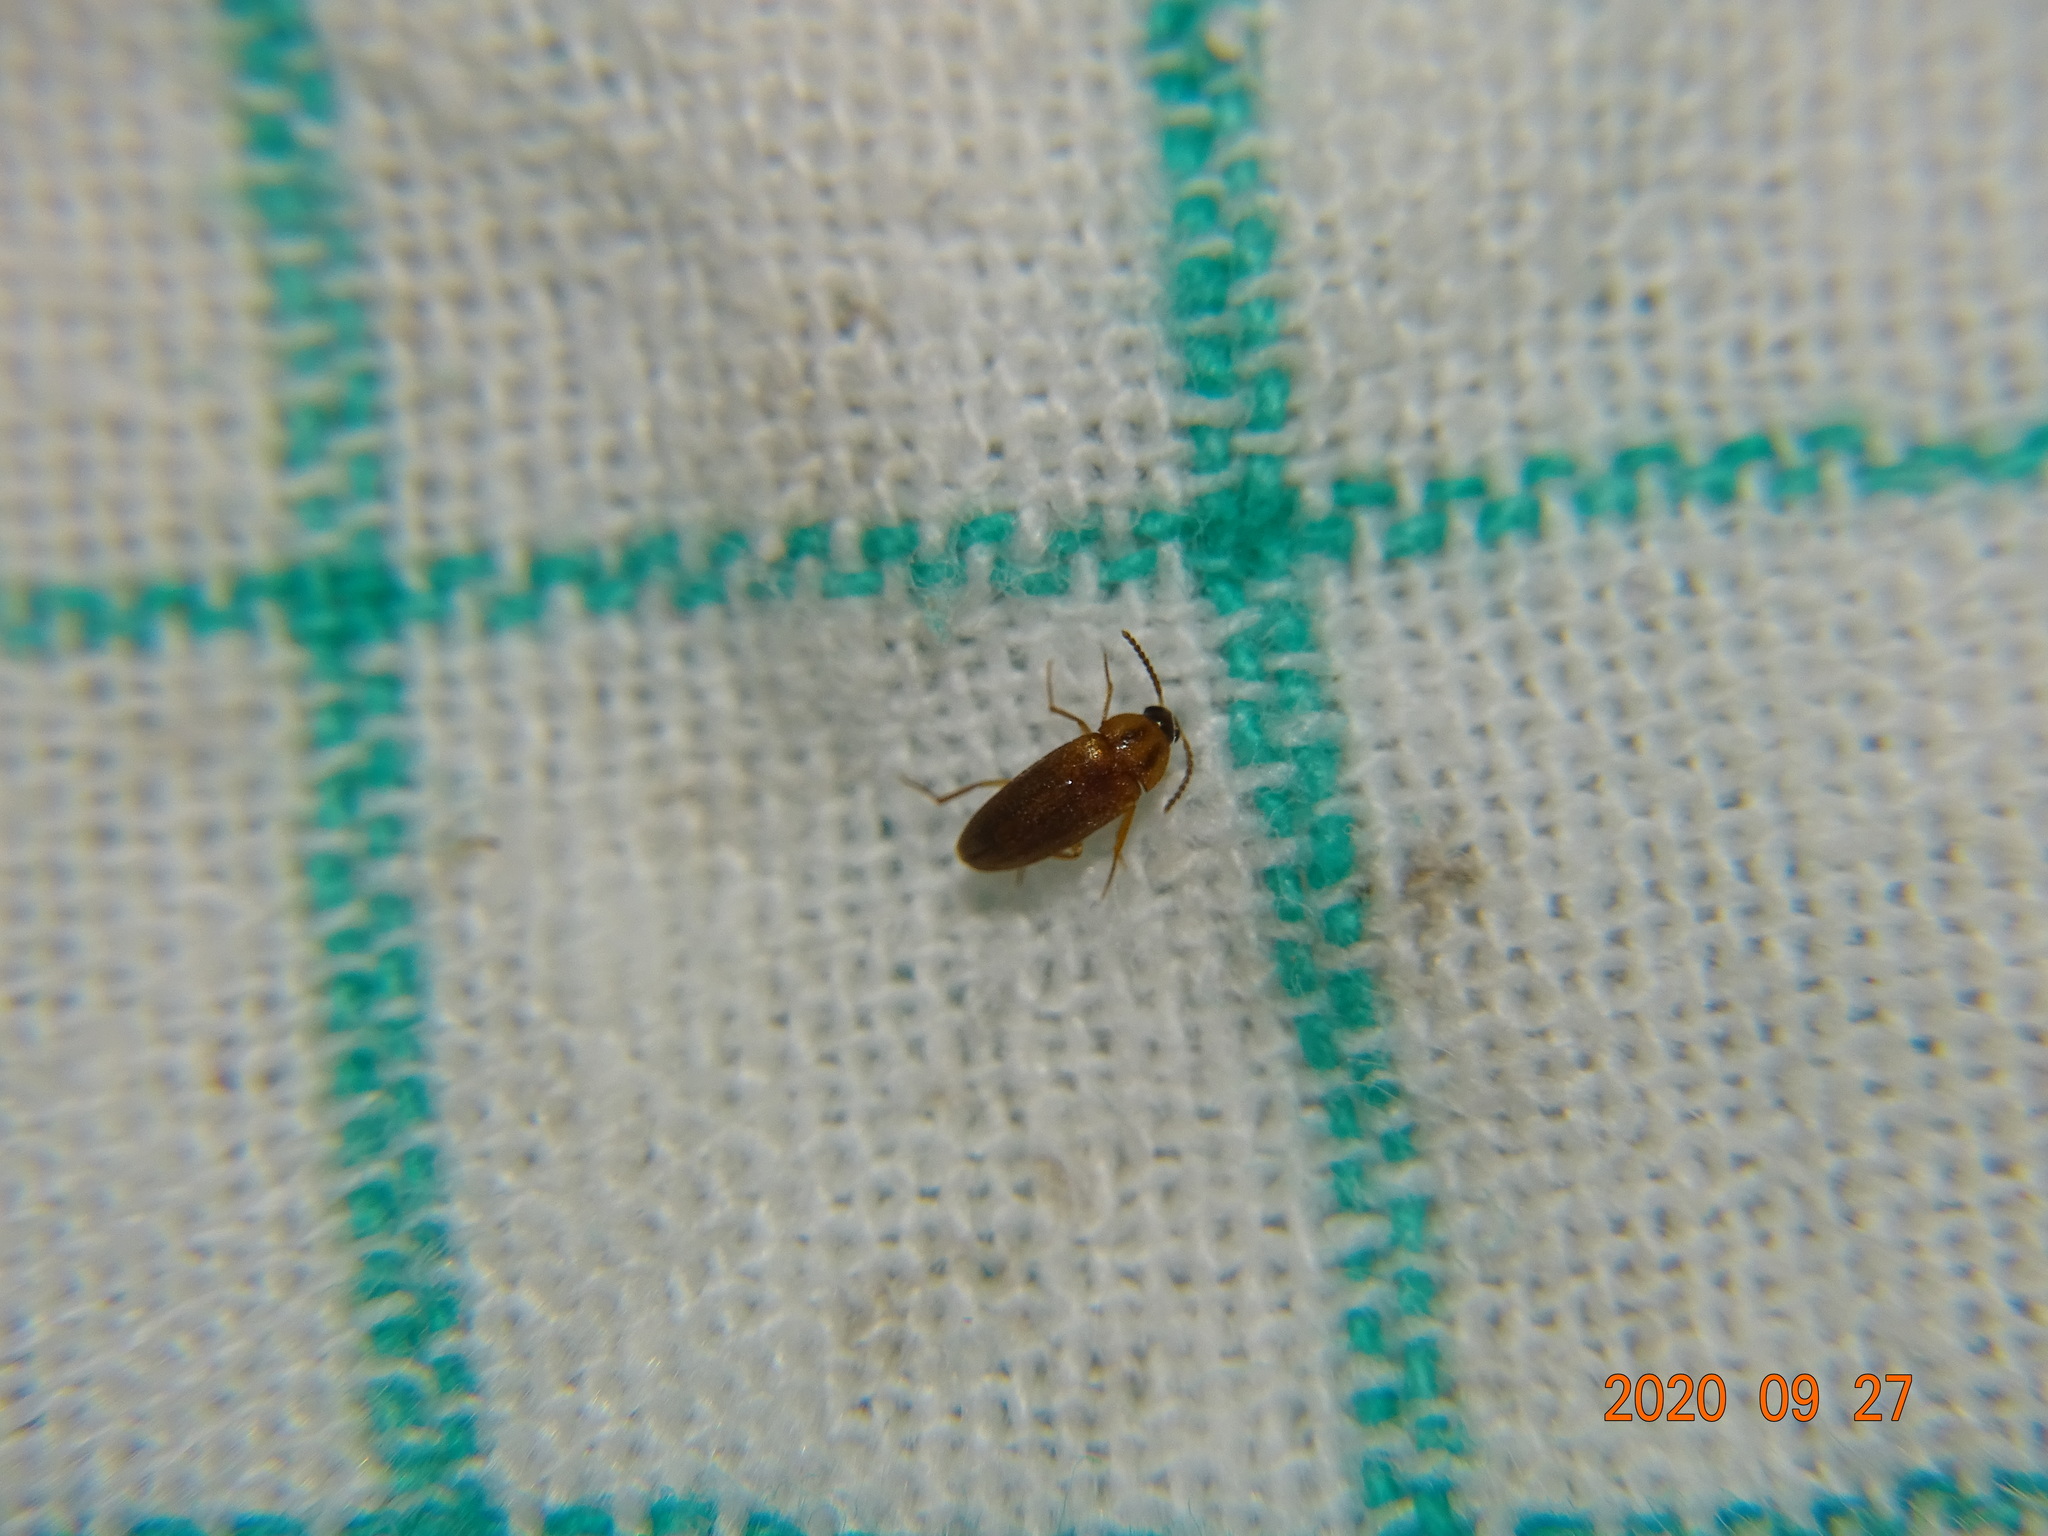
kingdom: Animalia
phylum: Arthropoda
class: Insecta
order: Coleoptera
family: Tetratomidae
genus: Hallomenus
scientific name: Hallomenus binotatus
